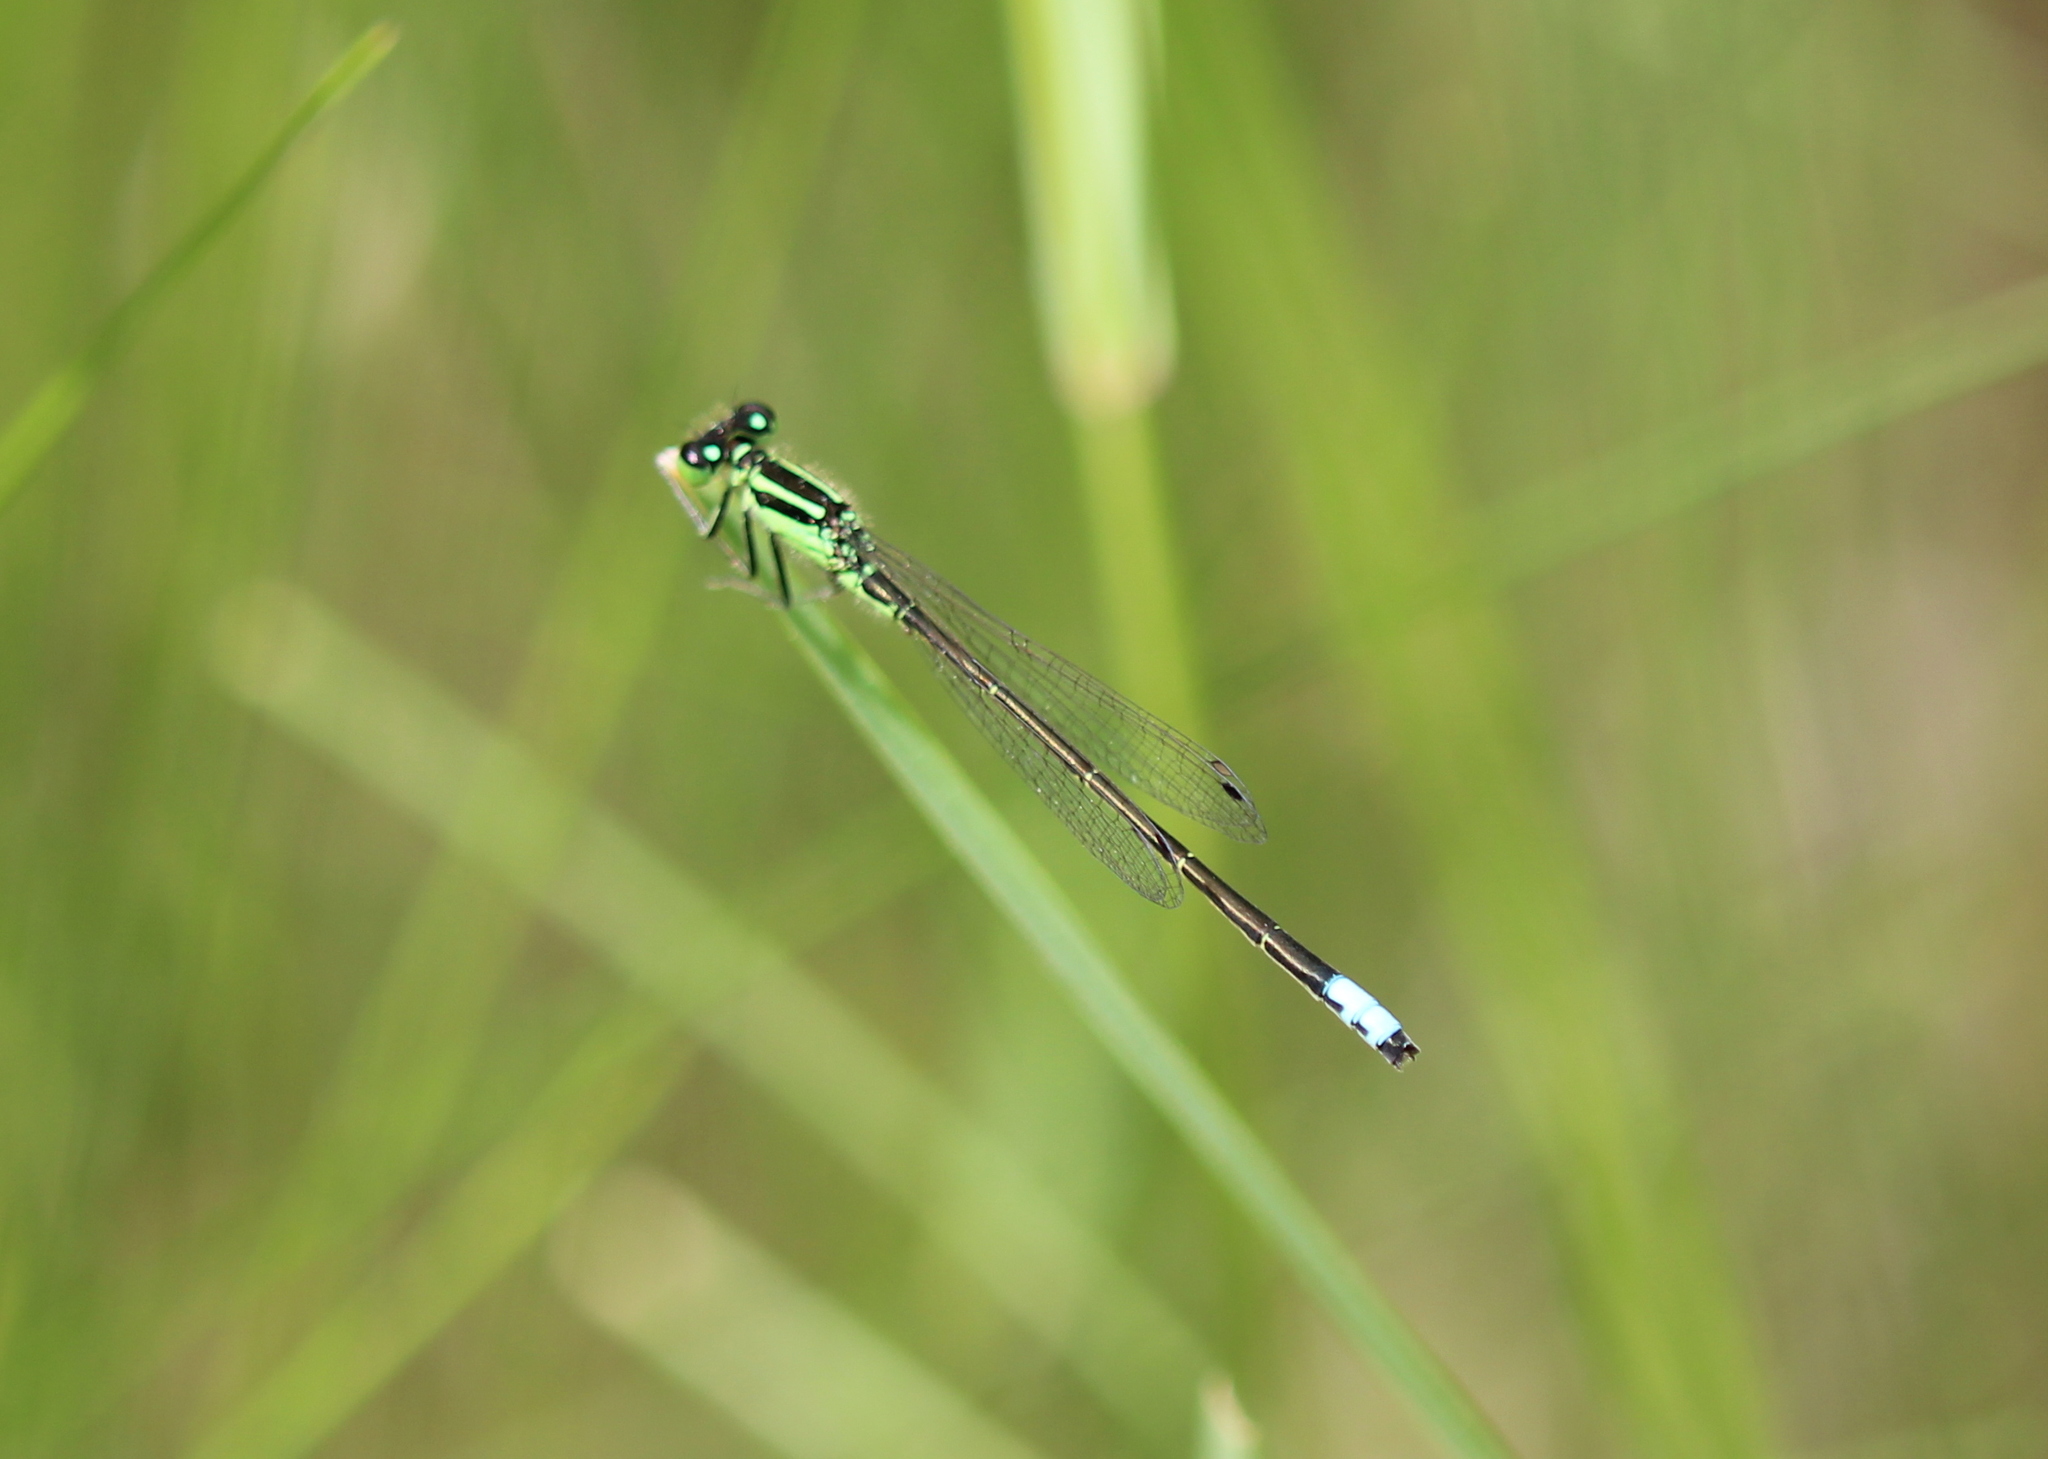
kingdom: Animalia
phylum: Arthropoda
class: Insecta
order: Odonata
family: Coenagrionidae
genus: Ischnura
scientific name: Ischnura verticalis
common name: Eastern forktail
